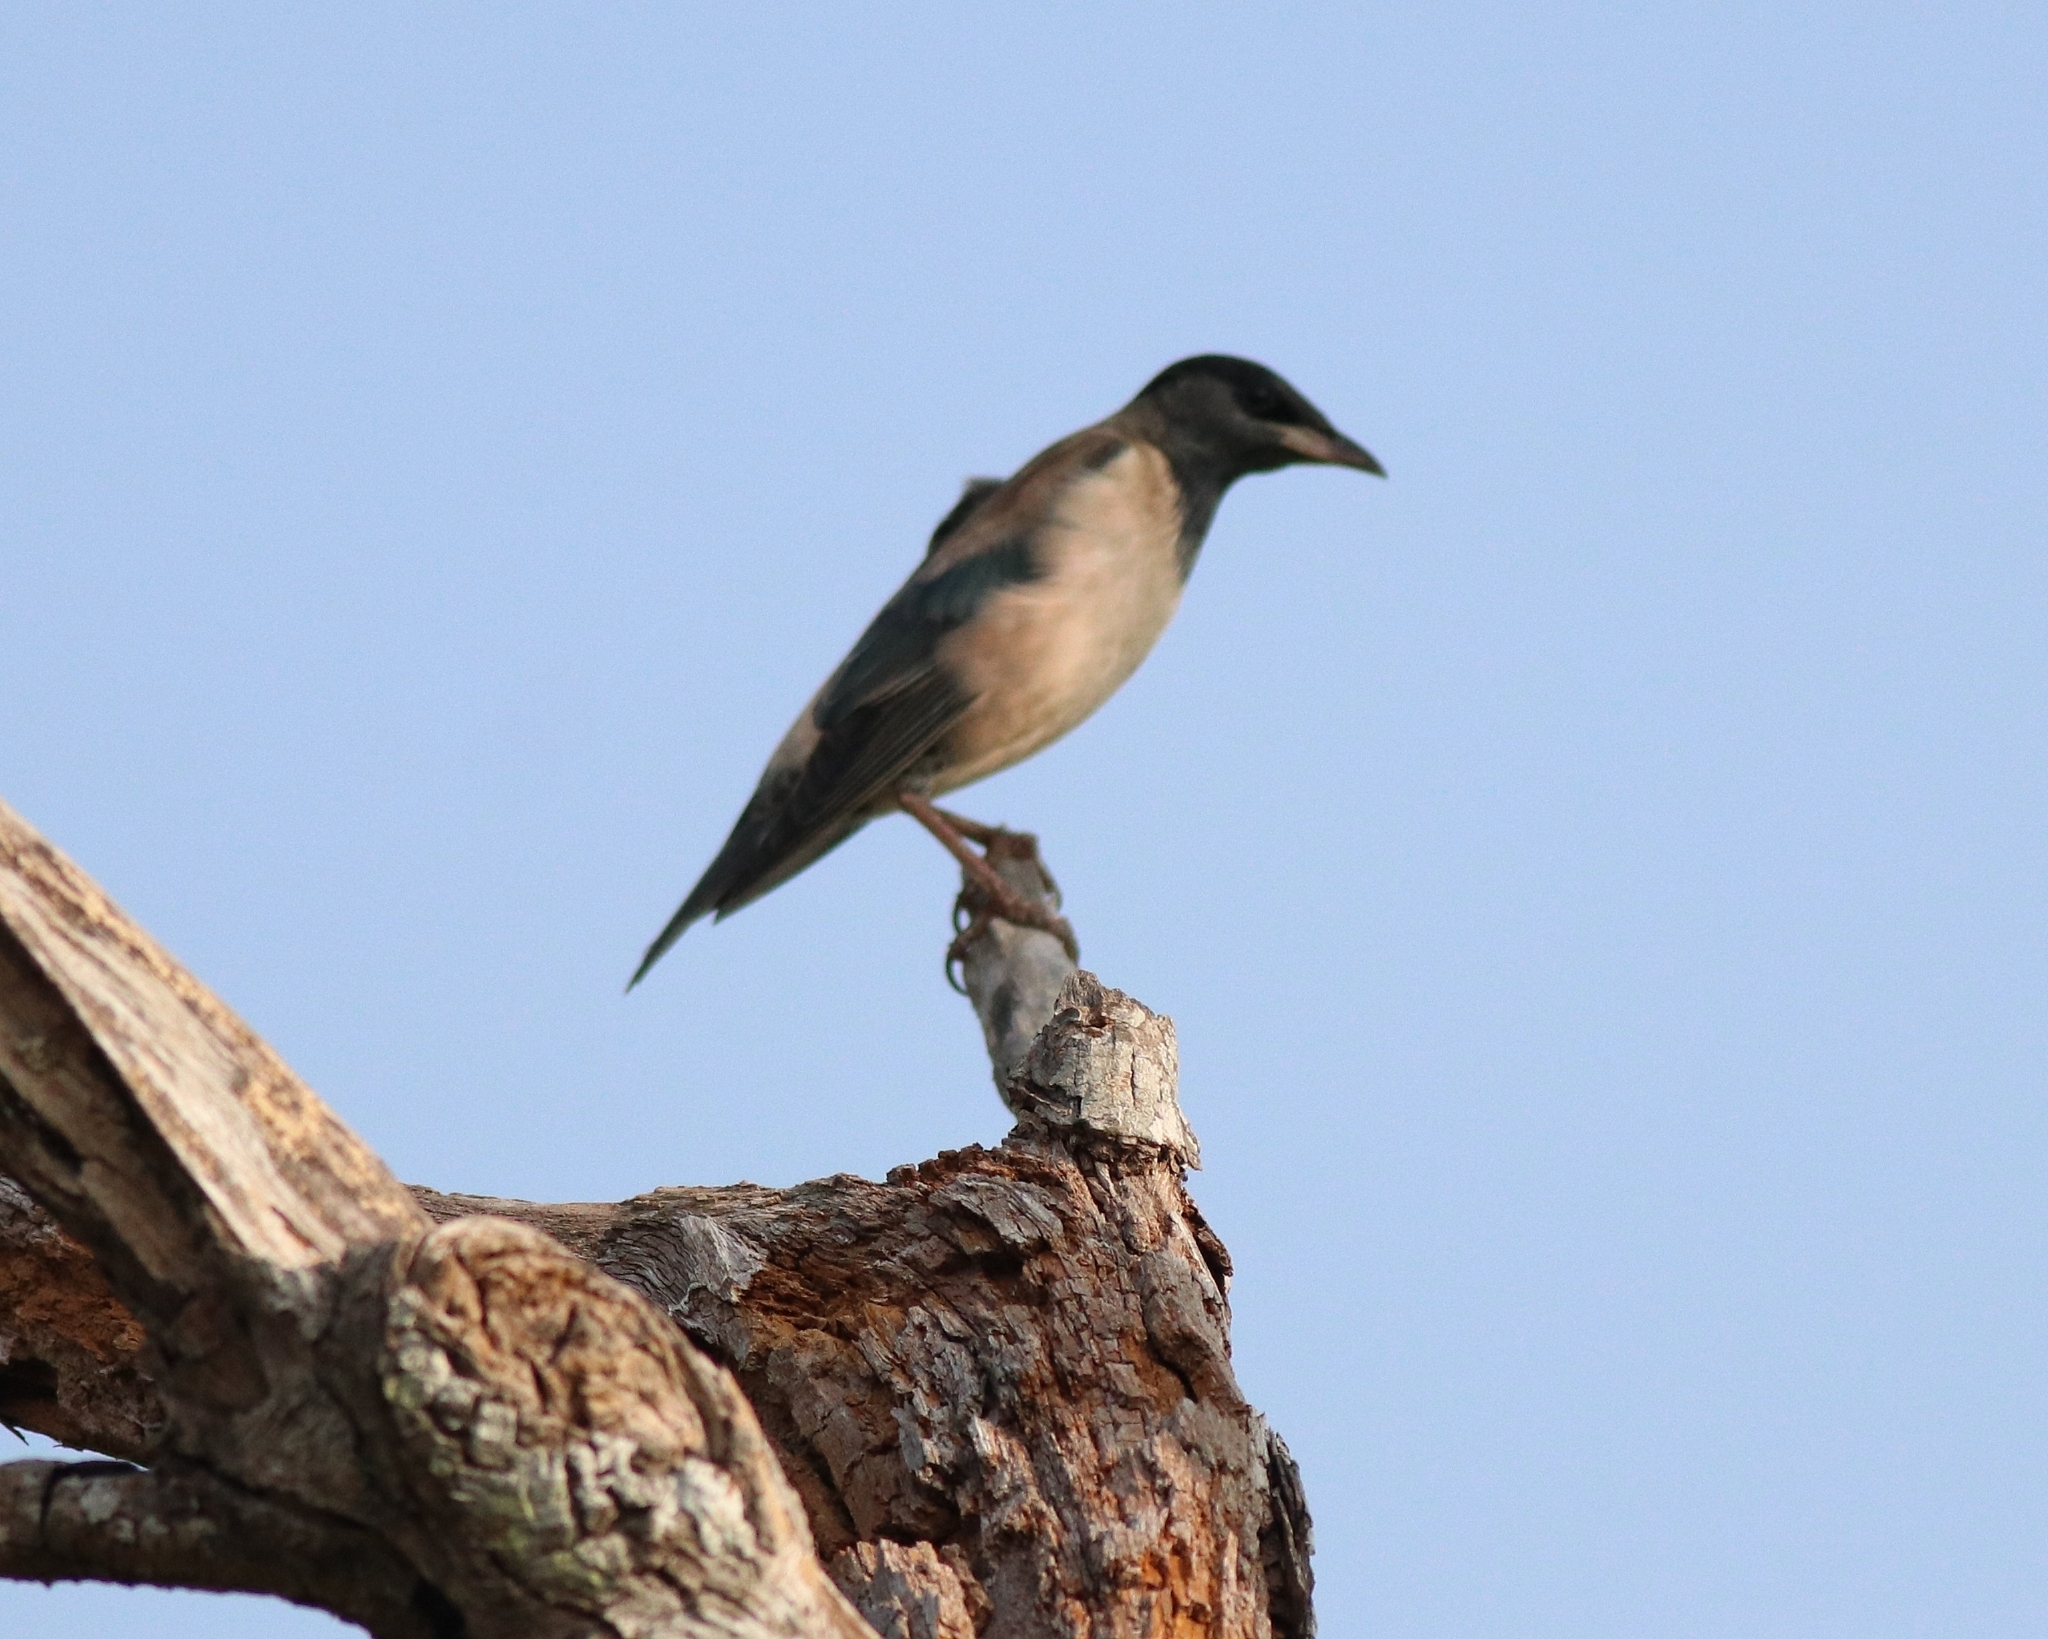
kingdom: Animalia
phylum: Chordata
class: Aves
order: Passeriformes
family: Sturnidae
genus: Pastor
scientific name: Pastor roseus
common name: Rosy starling
